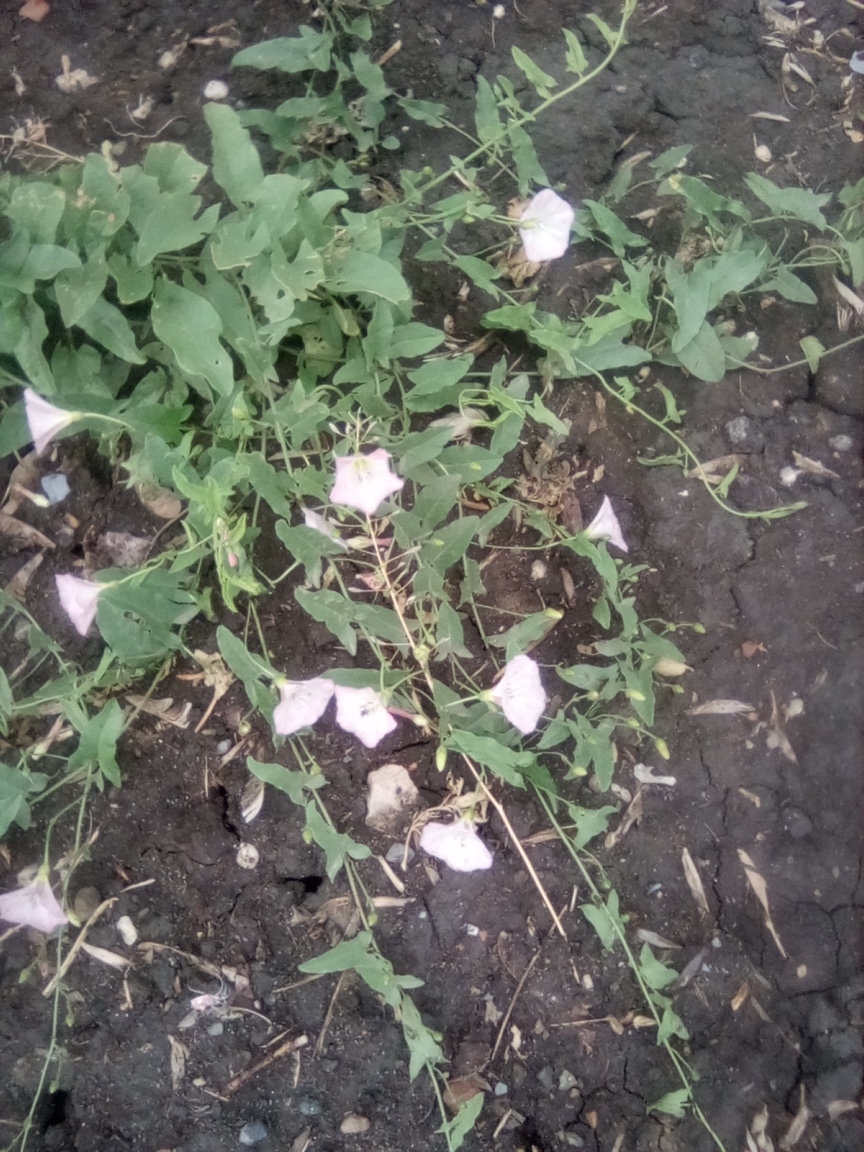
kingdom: Plantae
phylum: Tracheophyta
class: Magnoliopsida
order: Solanales
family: Convolvulaceae
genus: Convolvulus
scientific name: Convolvulus arvensis
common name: Field bindweed
